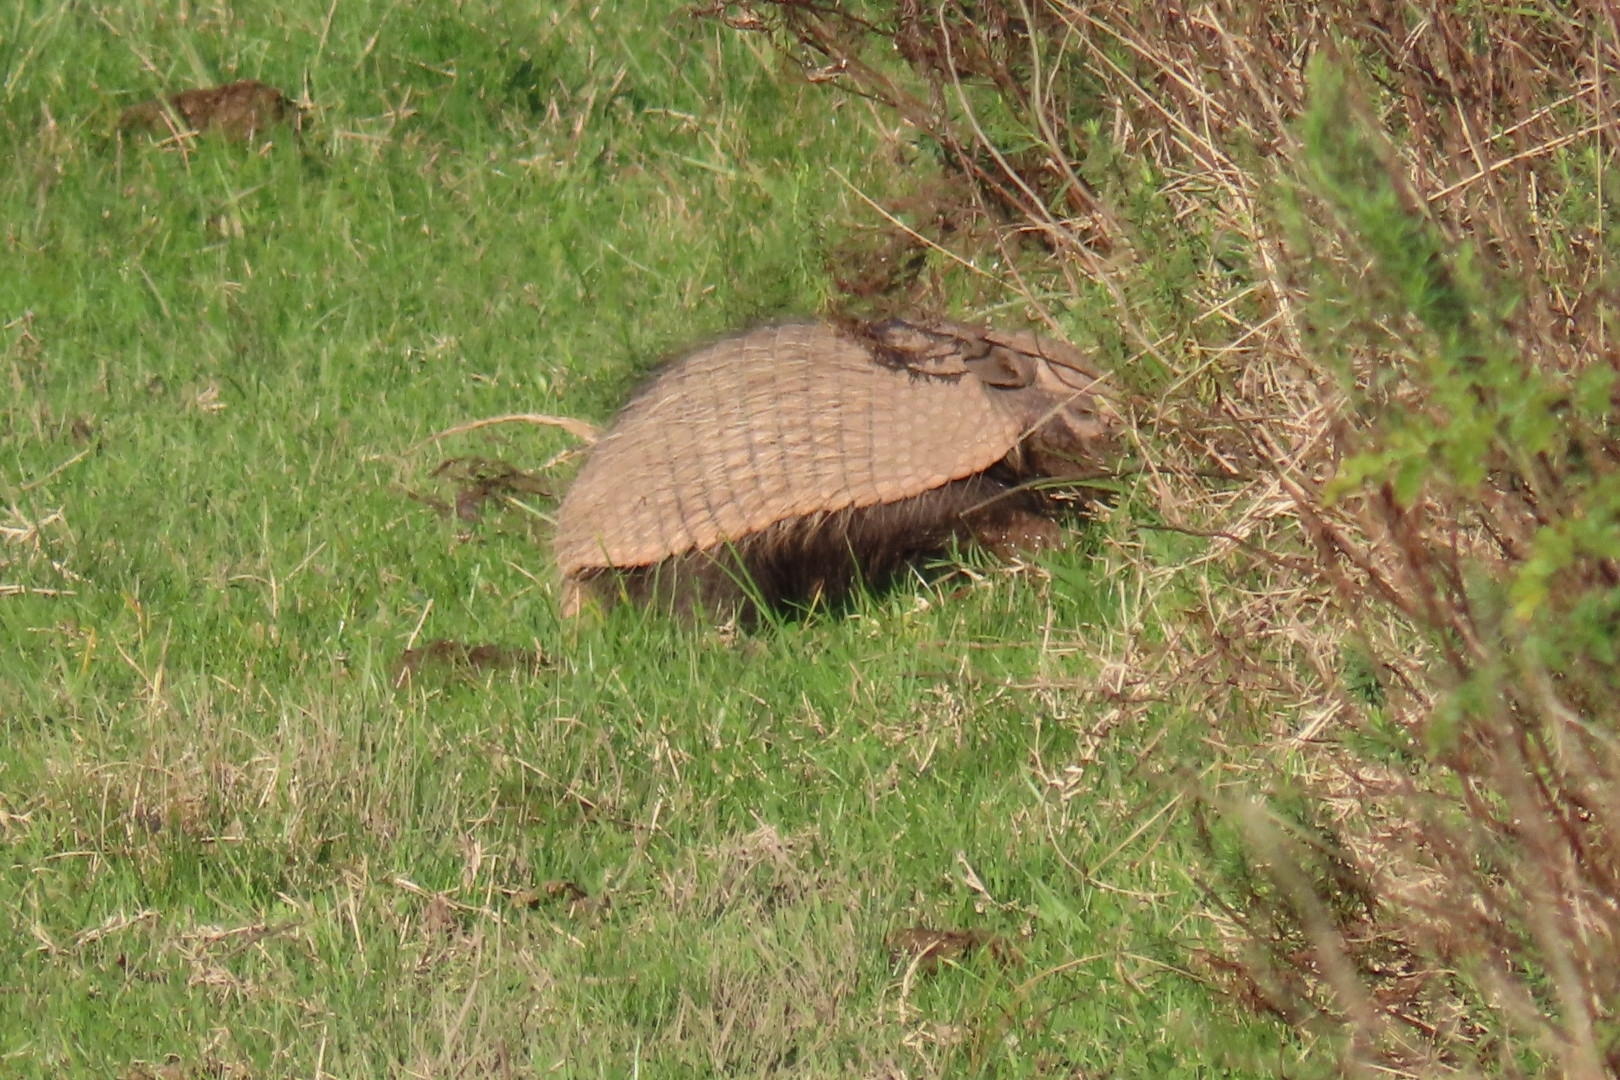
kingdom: Animalia
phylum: Chordata
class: Mammalia
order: Cingulata
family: Dasypodidae
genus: Euphractus
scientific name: Euphractus sexcinctus
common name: Six-banded armadillo
